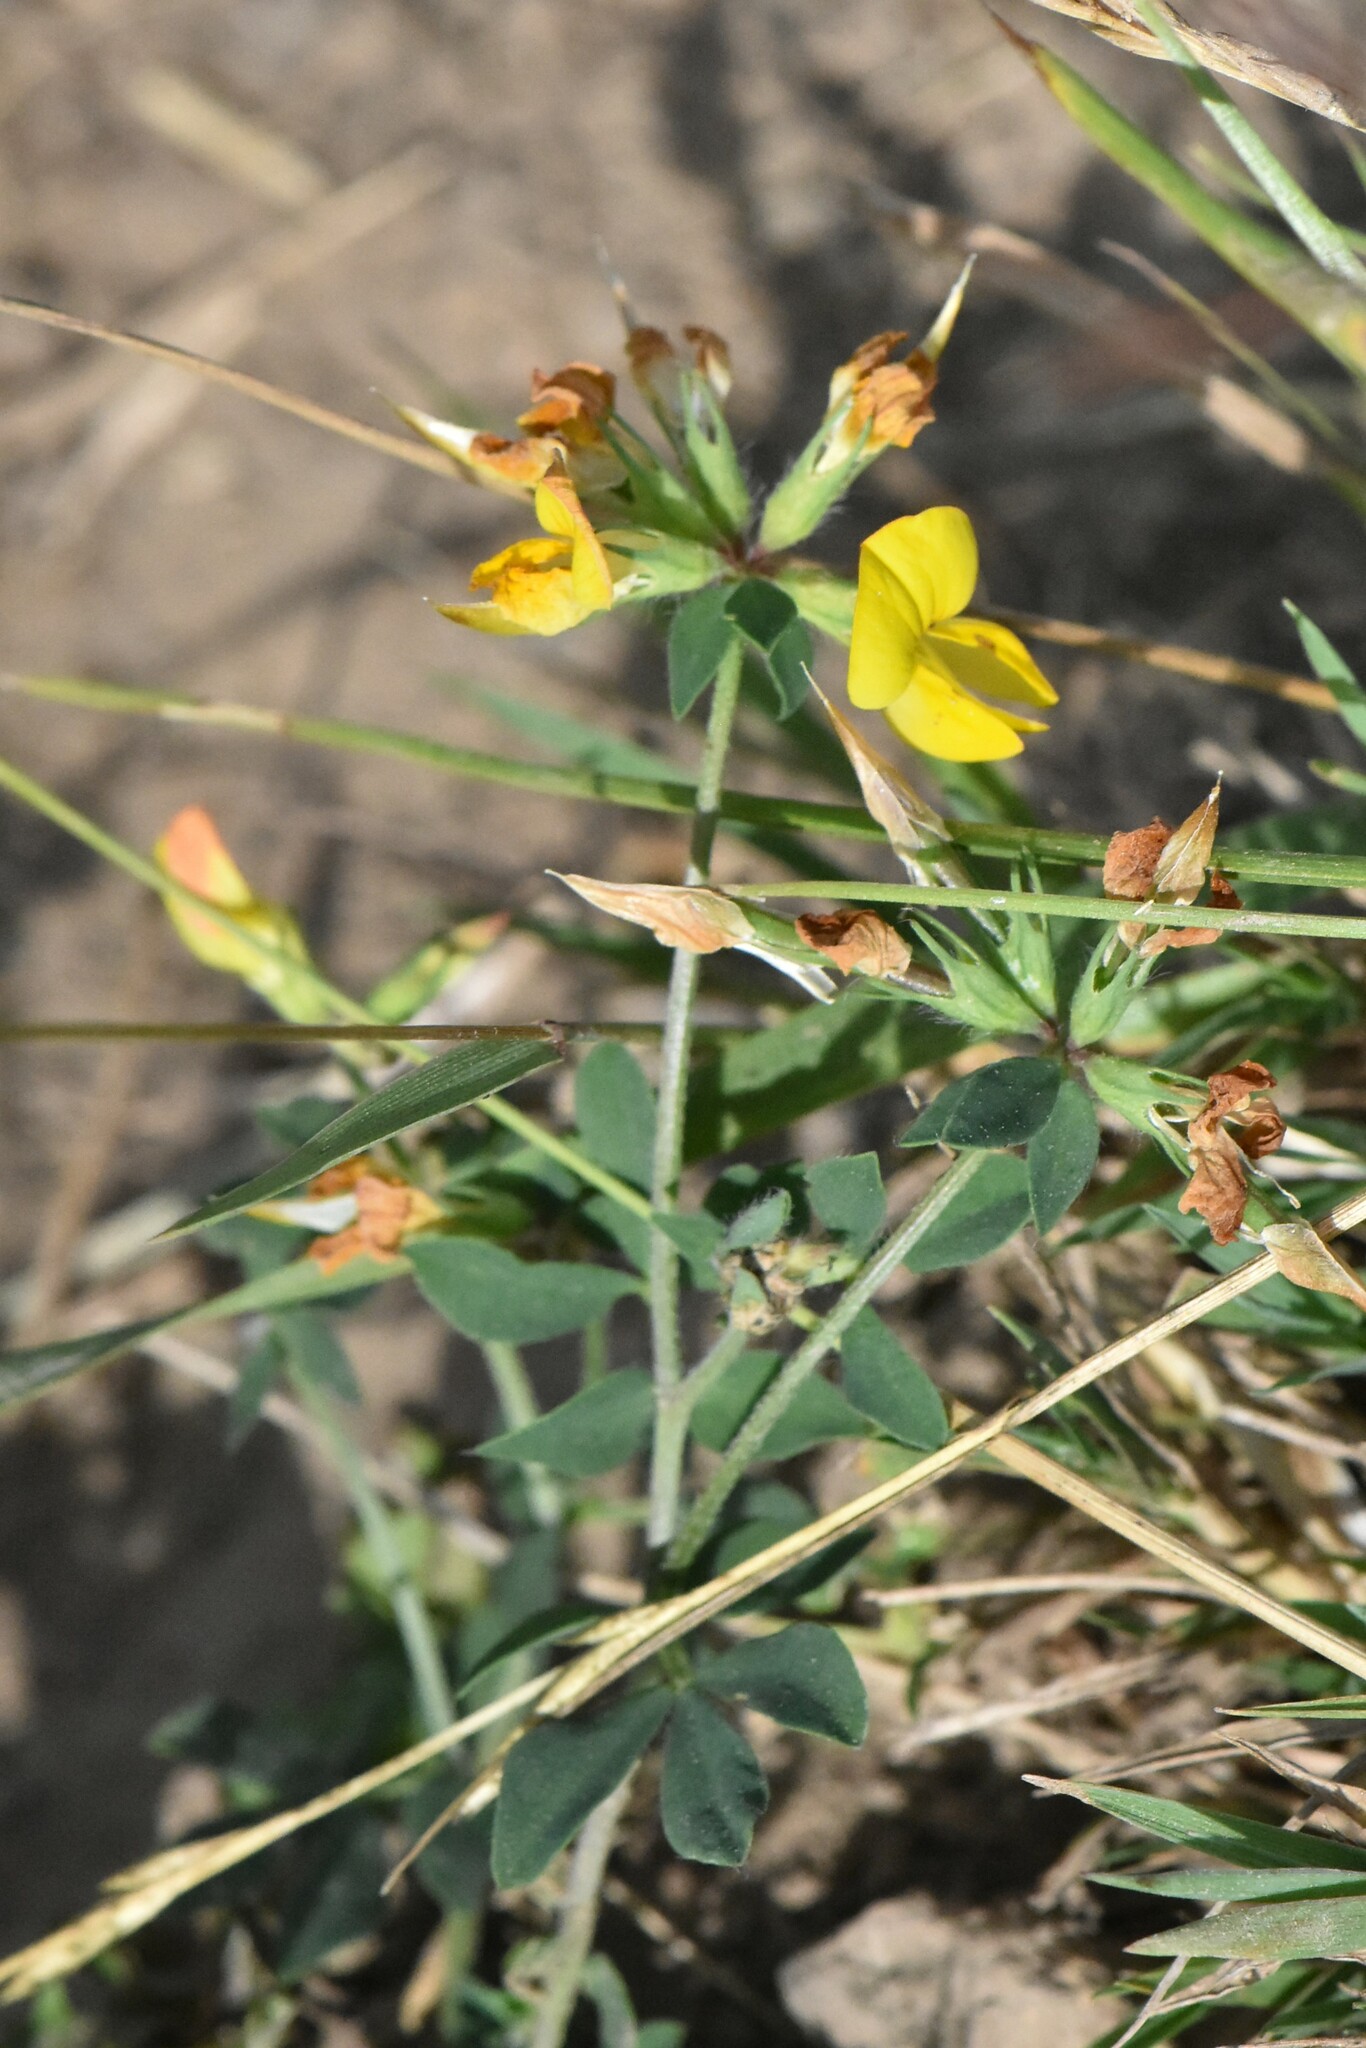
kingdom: Plantae
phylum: Tracheophyta
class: Magnoliopsida
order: Fabales
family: Fabaceae
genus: Lotus
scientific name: Lotus corniculatus
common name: Common bird's-foot-trefoil
